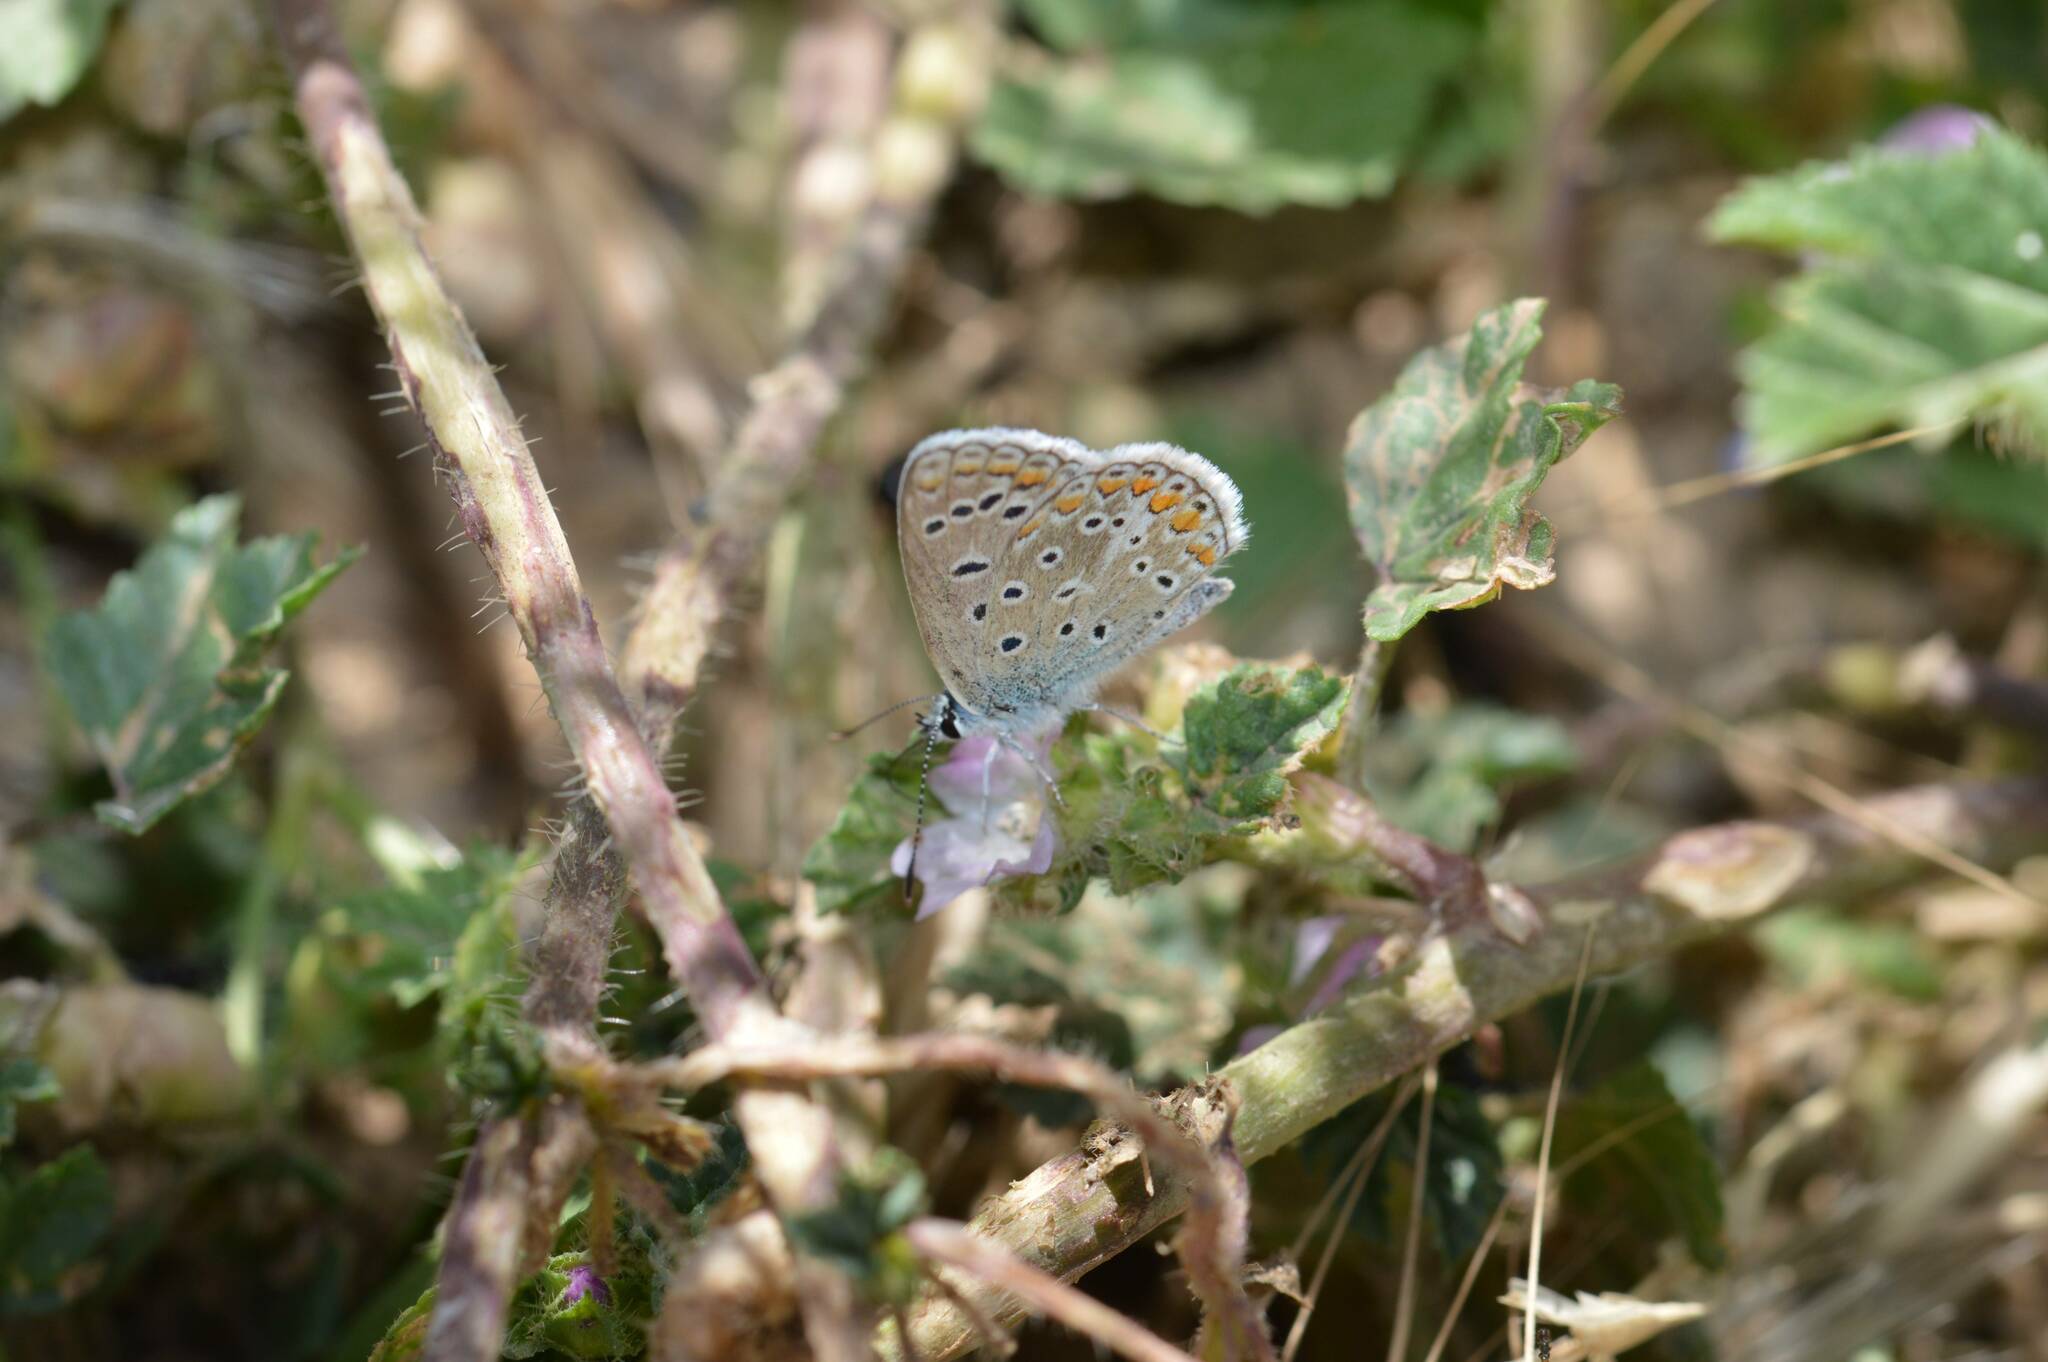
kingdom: Animalia
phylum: Arthropoda
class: Insecta
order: Lepidoptera
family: Lycaenidae
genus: Polyommatus
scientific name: Polyommatus celina
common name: Austaut's blue
